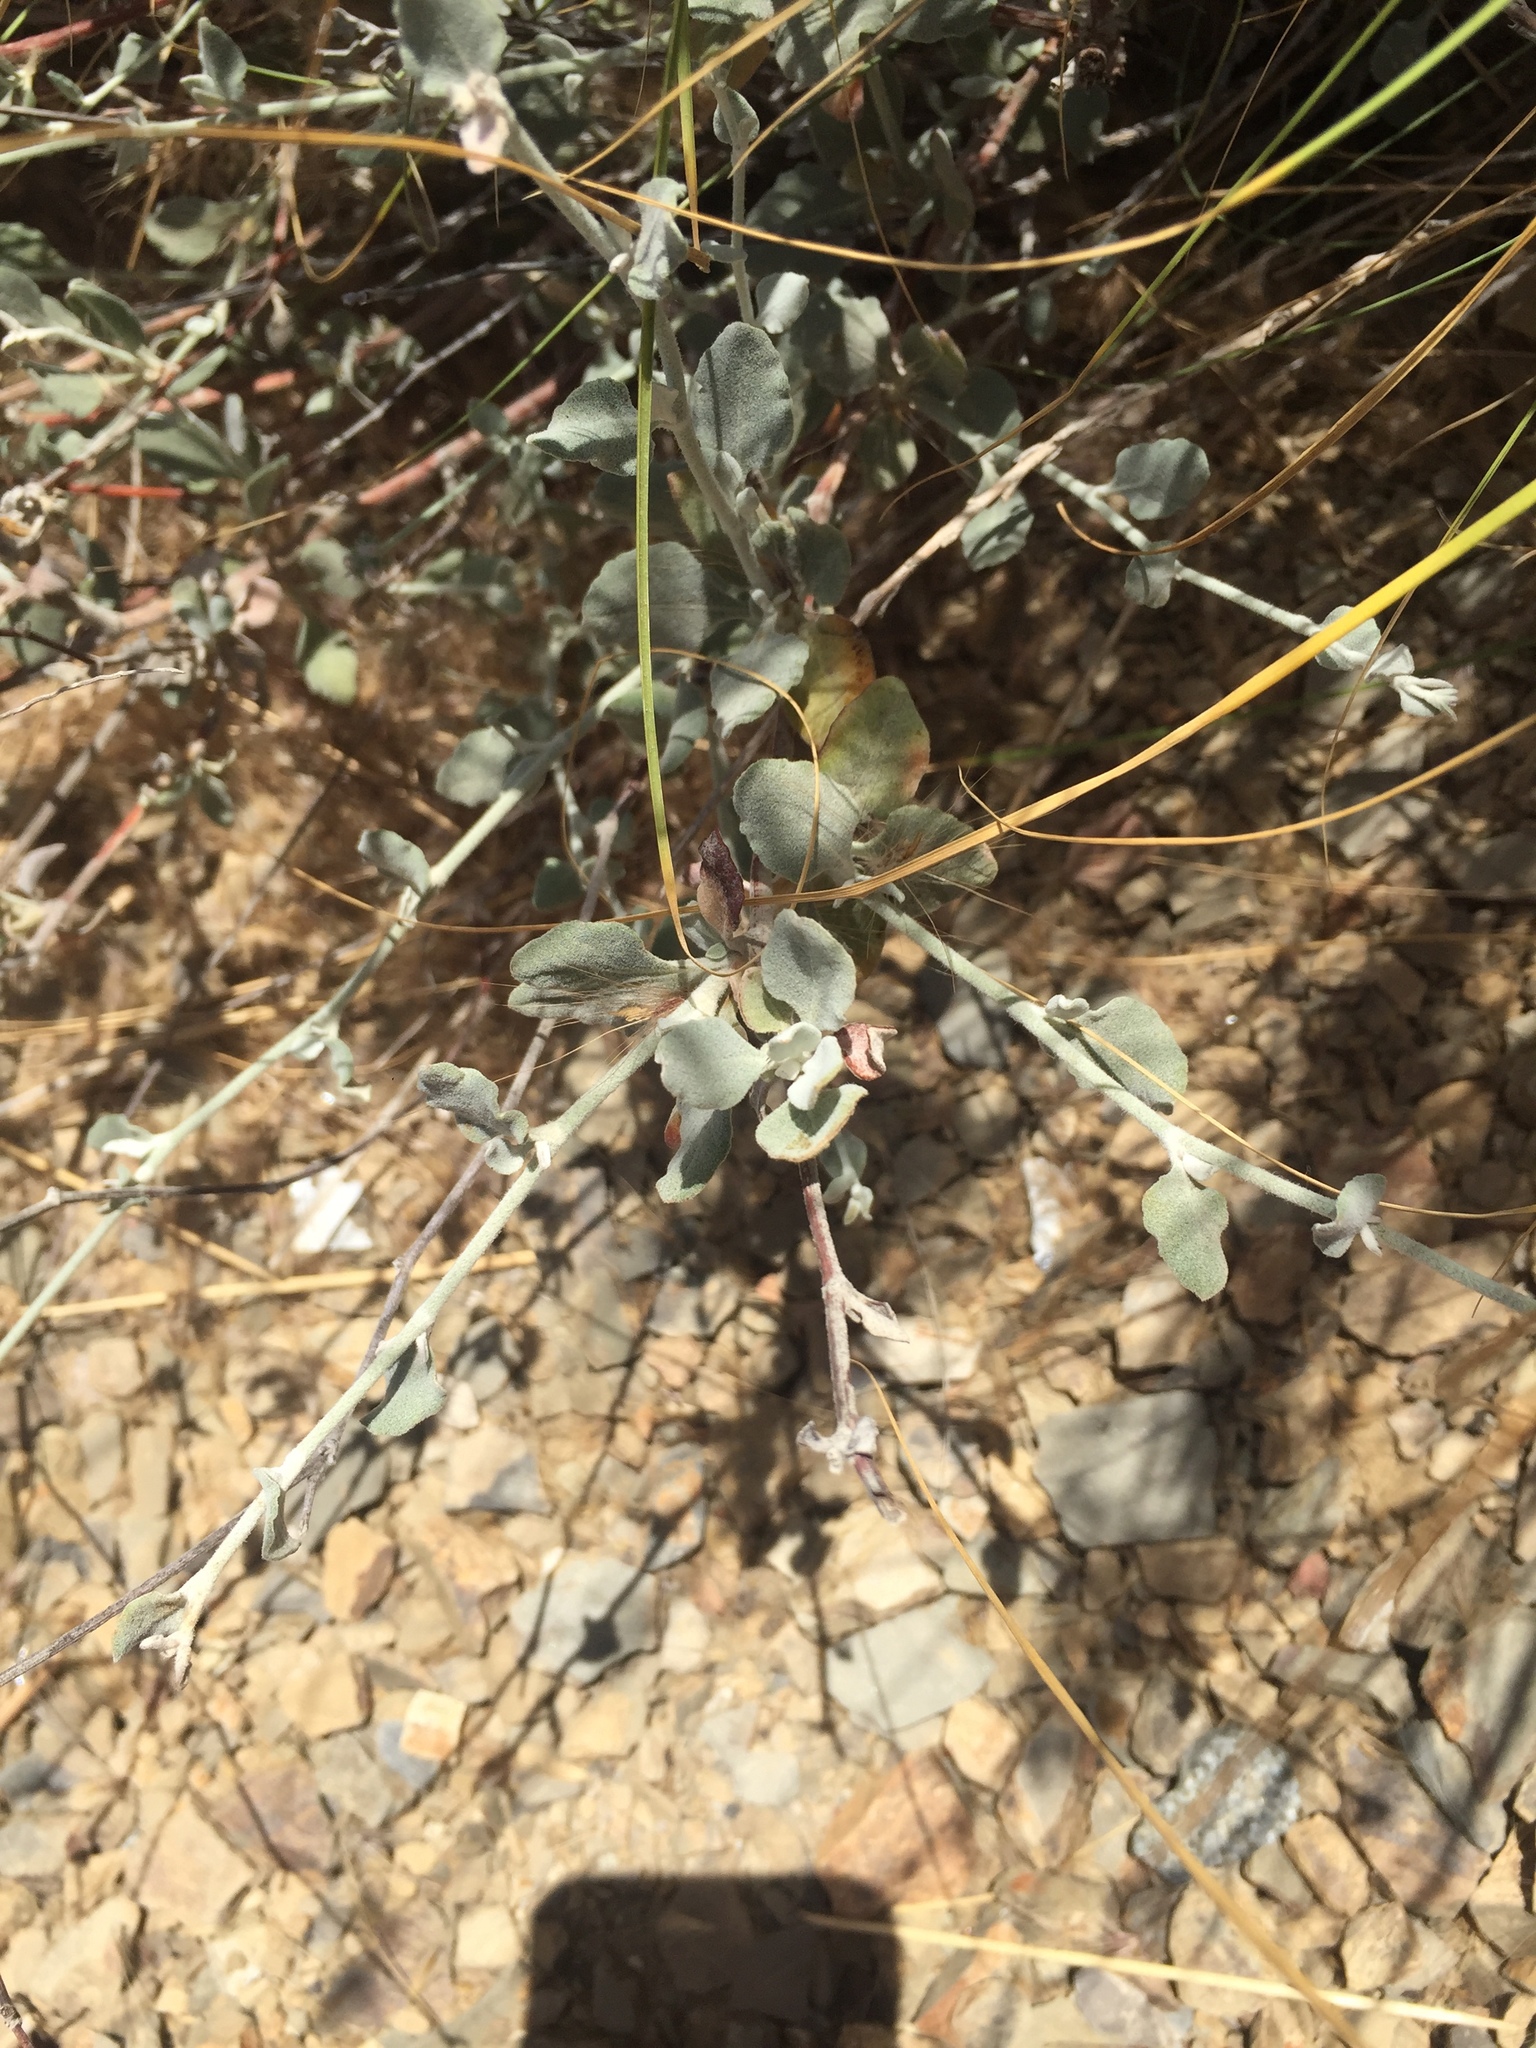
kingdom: Plantae
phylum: Tracheophyta
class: Magnoliopsida
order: Caryophyllales
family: Polygonaceae
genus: Eriogonum
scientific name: Eriogonum cinereum
